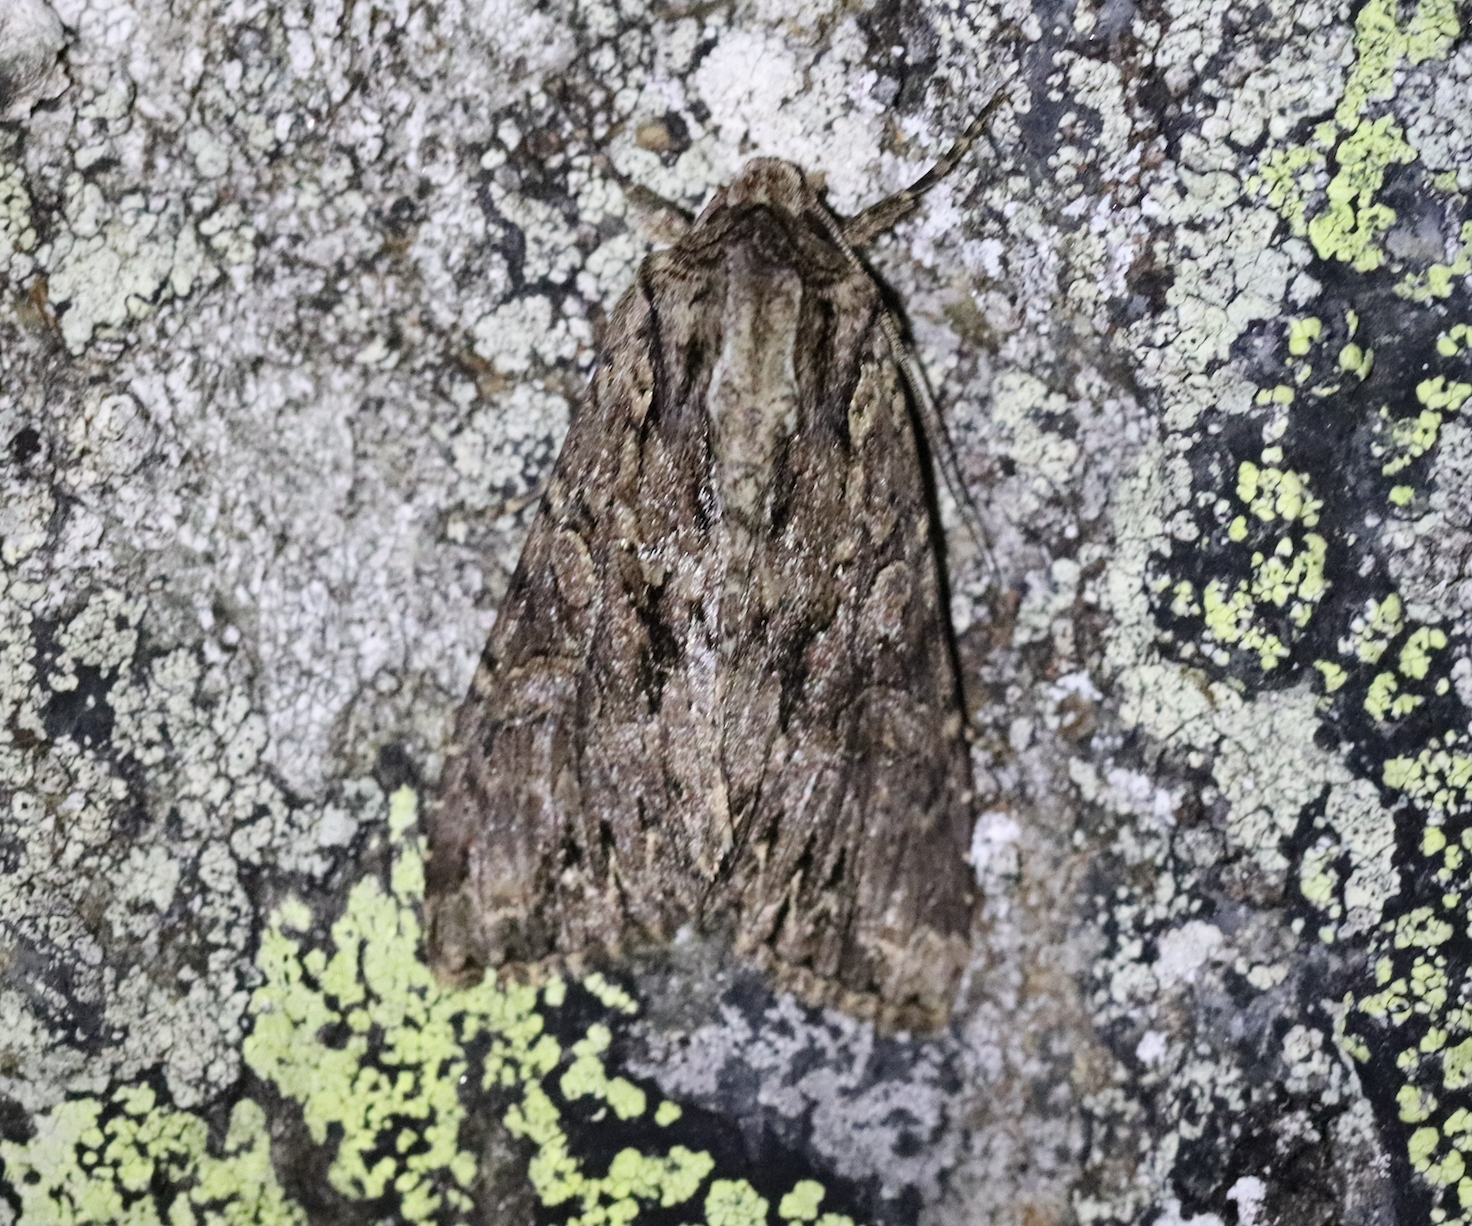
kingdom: Animalia
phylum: Arthropoda
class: Insecta
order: Lepidoptera
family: Noctuidae
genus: Apamea
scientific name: Apamea monoglypha
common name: Dark arches
